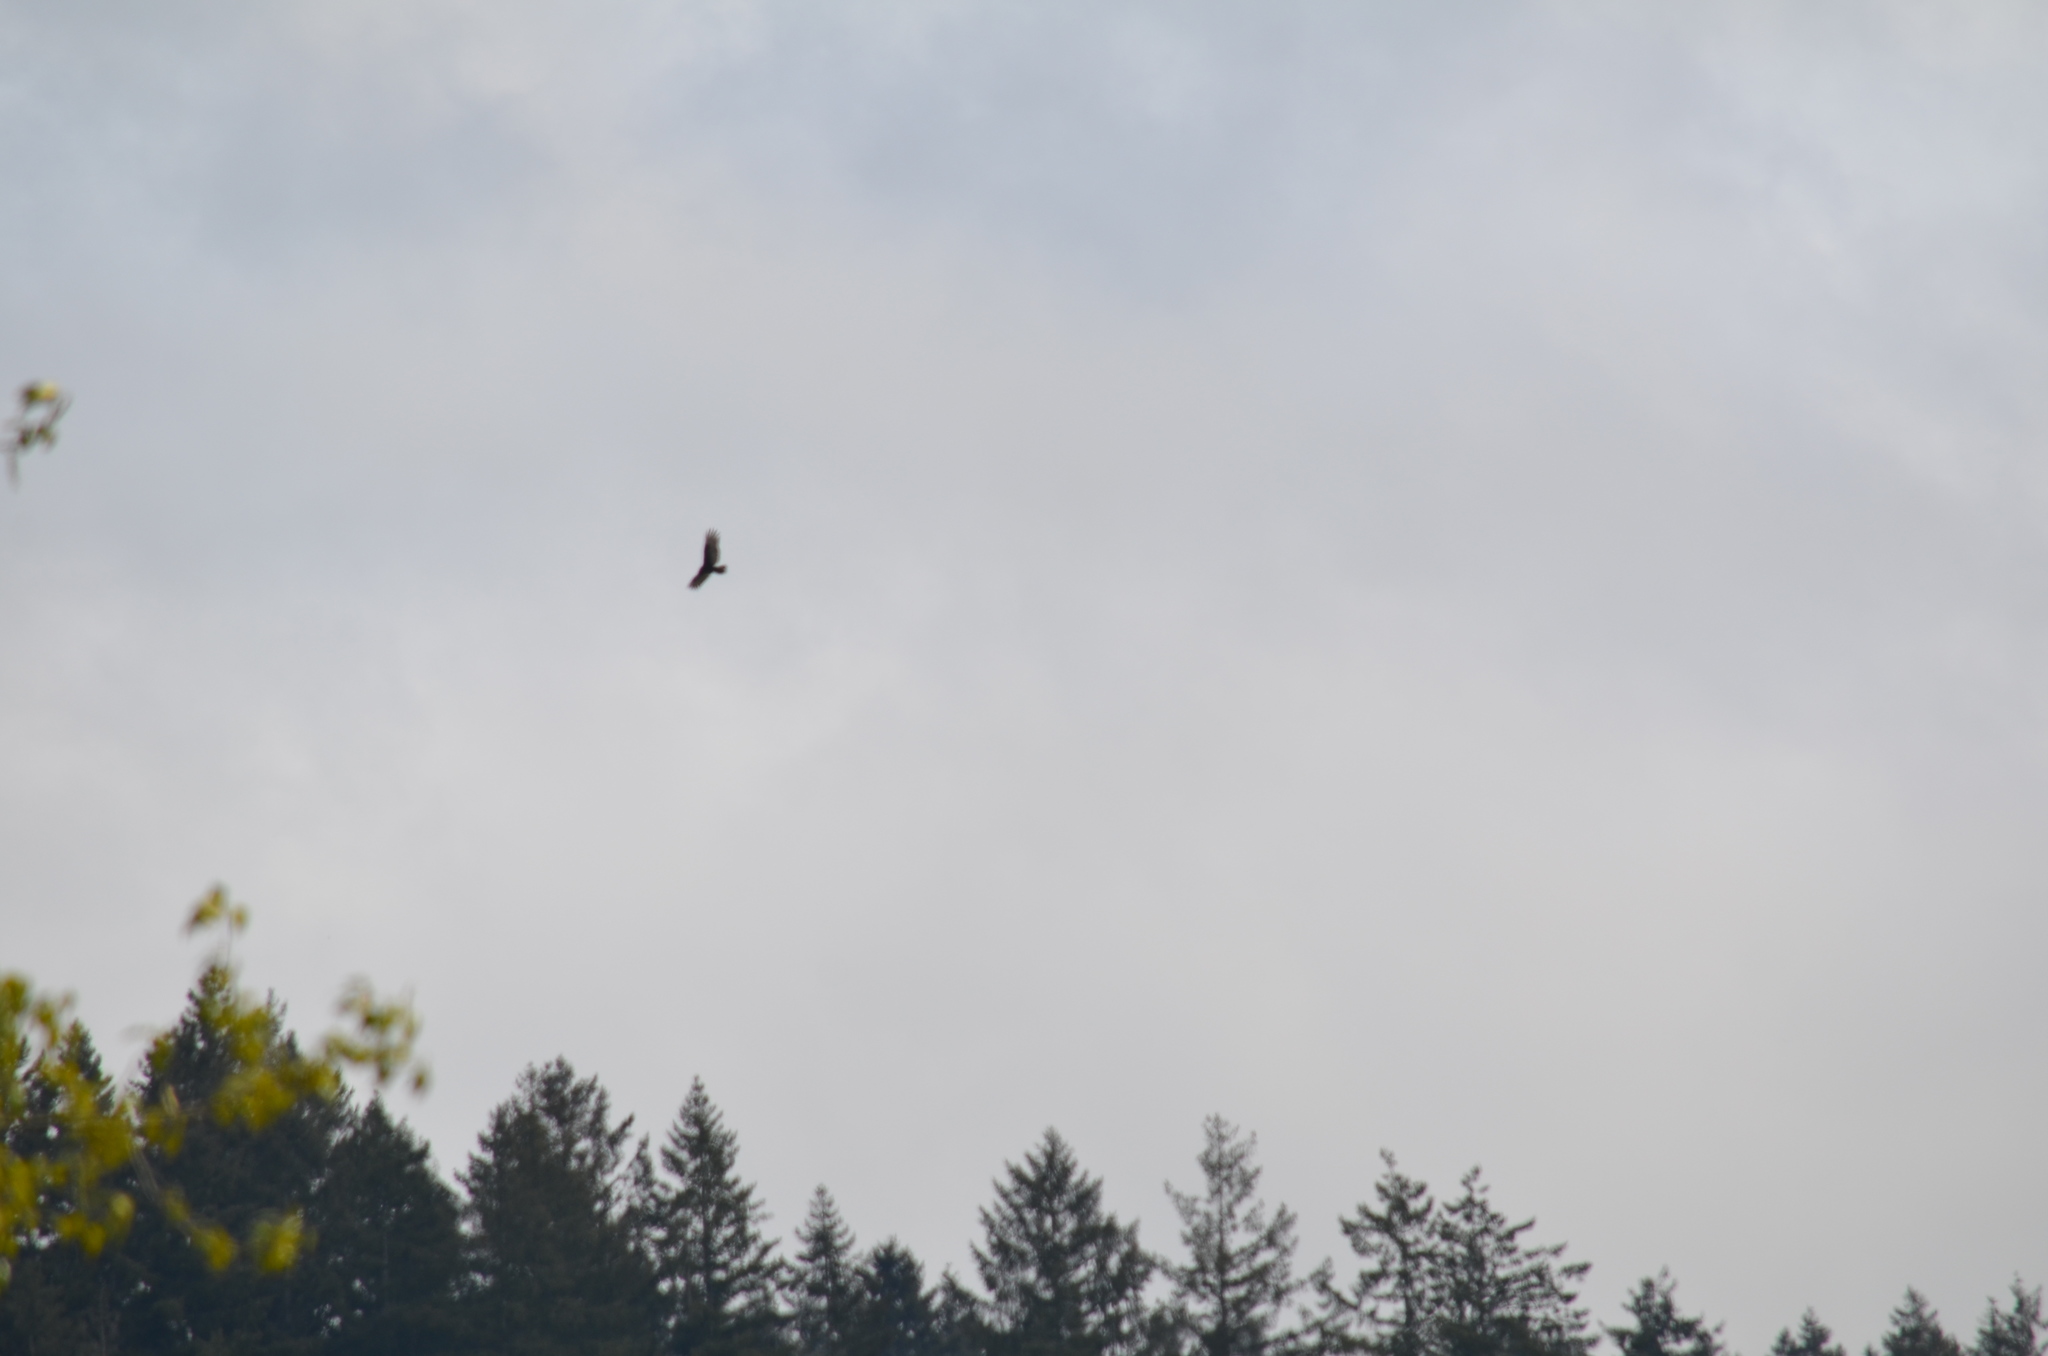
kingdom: Animalia
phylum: Chordata
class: Aves
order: Accipitriformes
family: Cathartidae
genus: Cathartes
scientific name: Cathartes aura
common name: Turkey vulture
